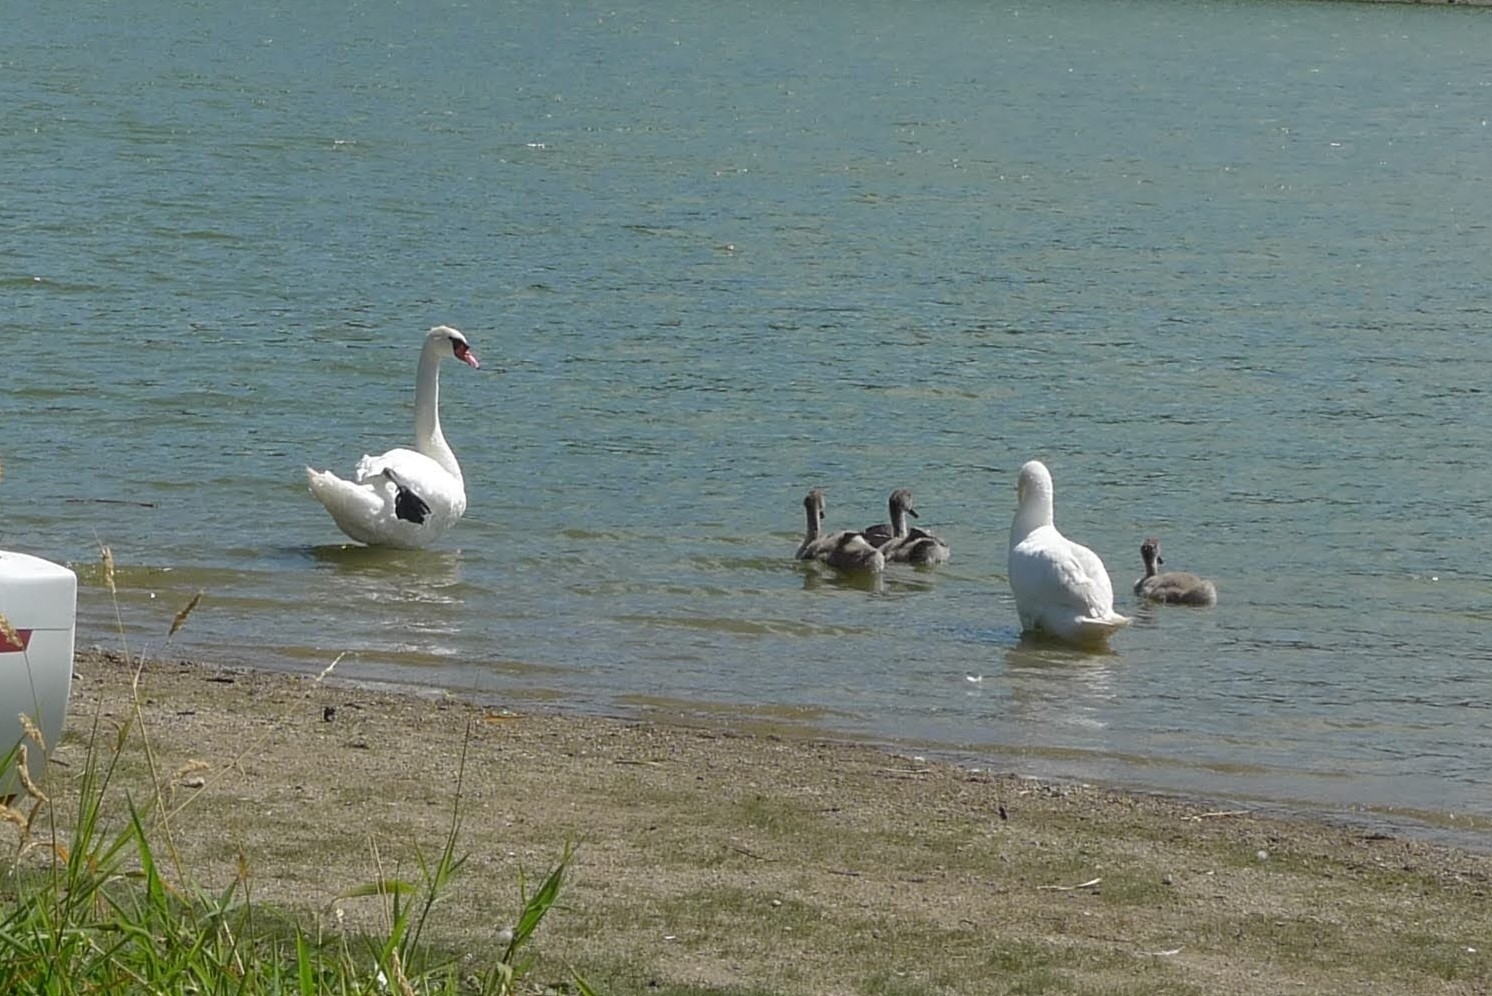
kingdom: Animalia
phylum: Chordata
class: Aves
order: Anseriformes
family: Anatidae
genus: Cygnus
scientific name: Cygnus olor
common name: Mute swan
